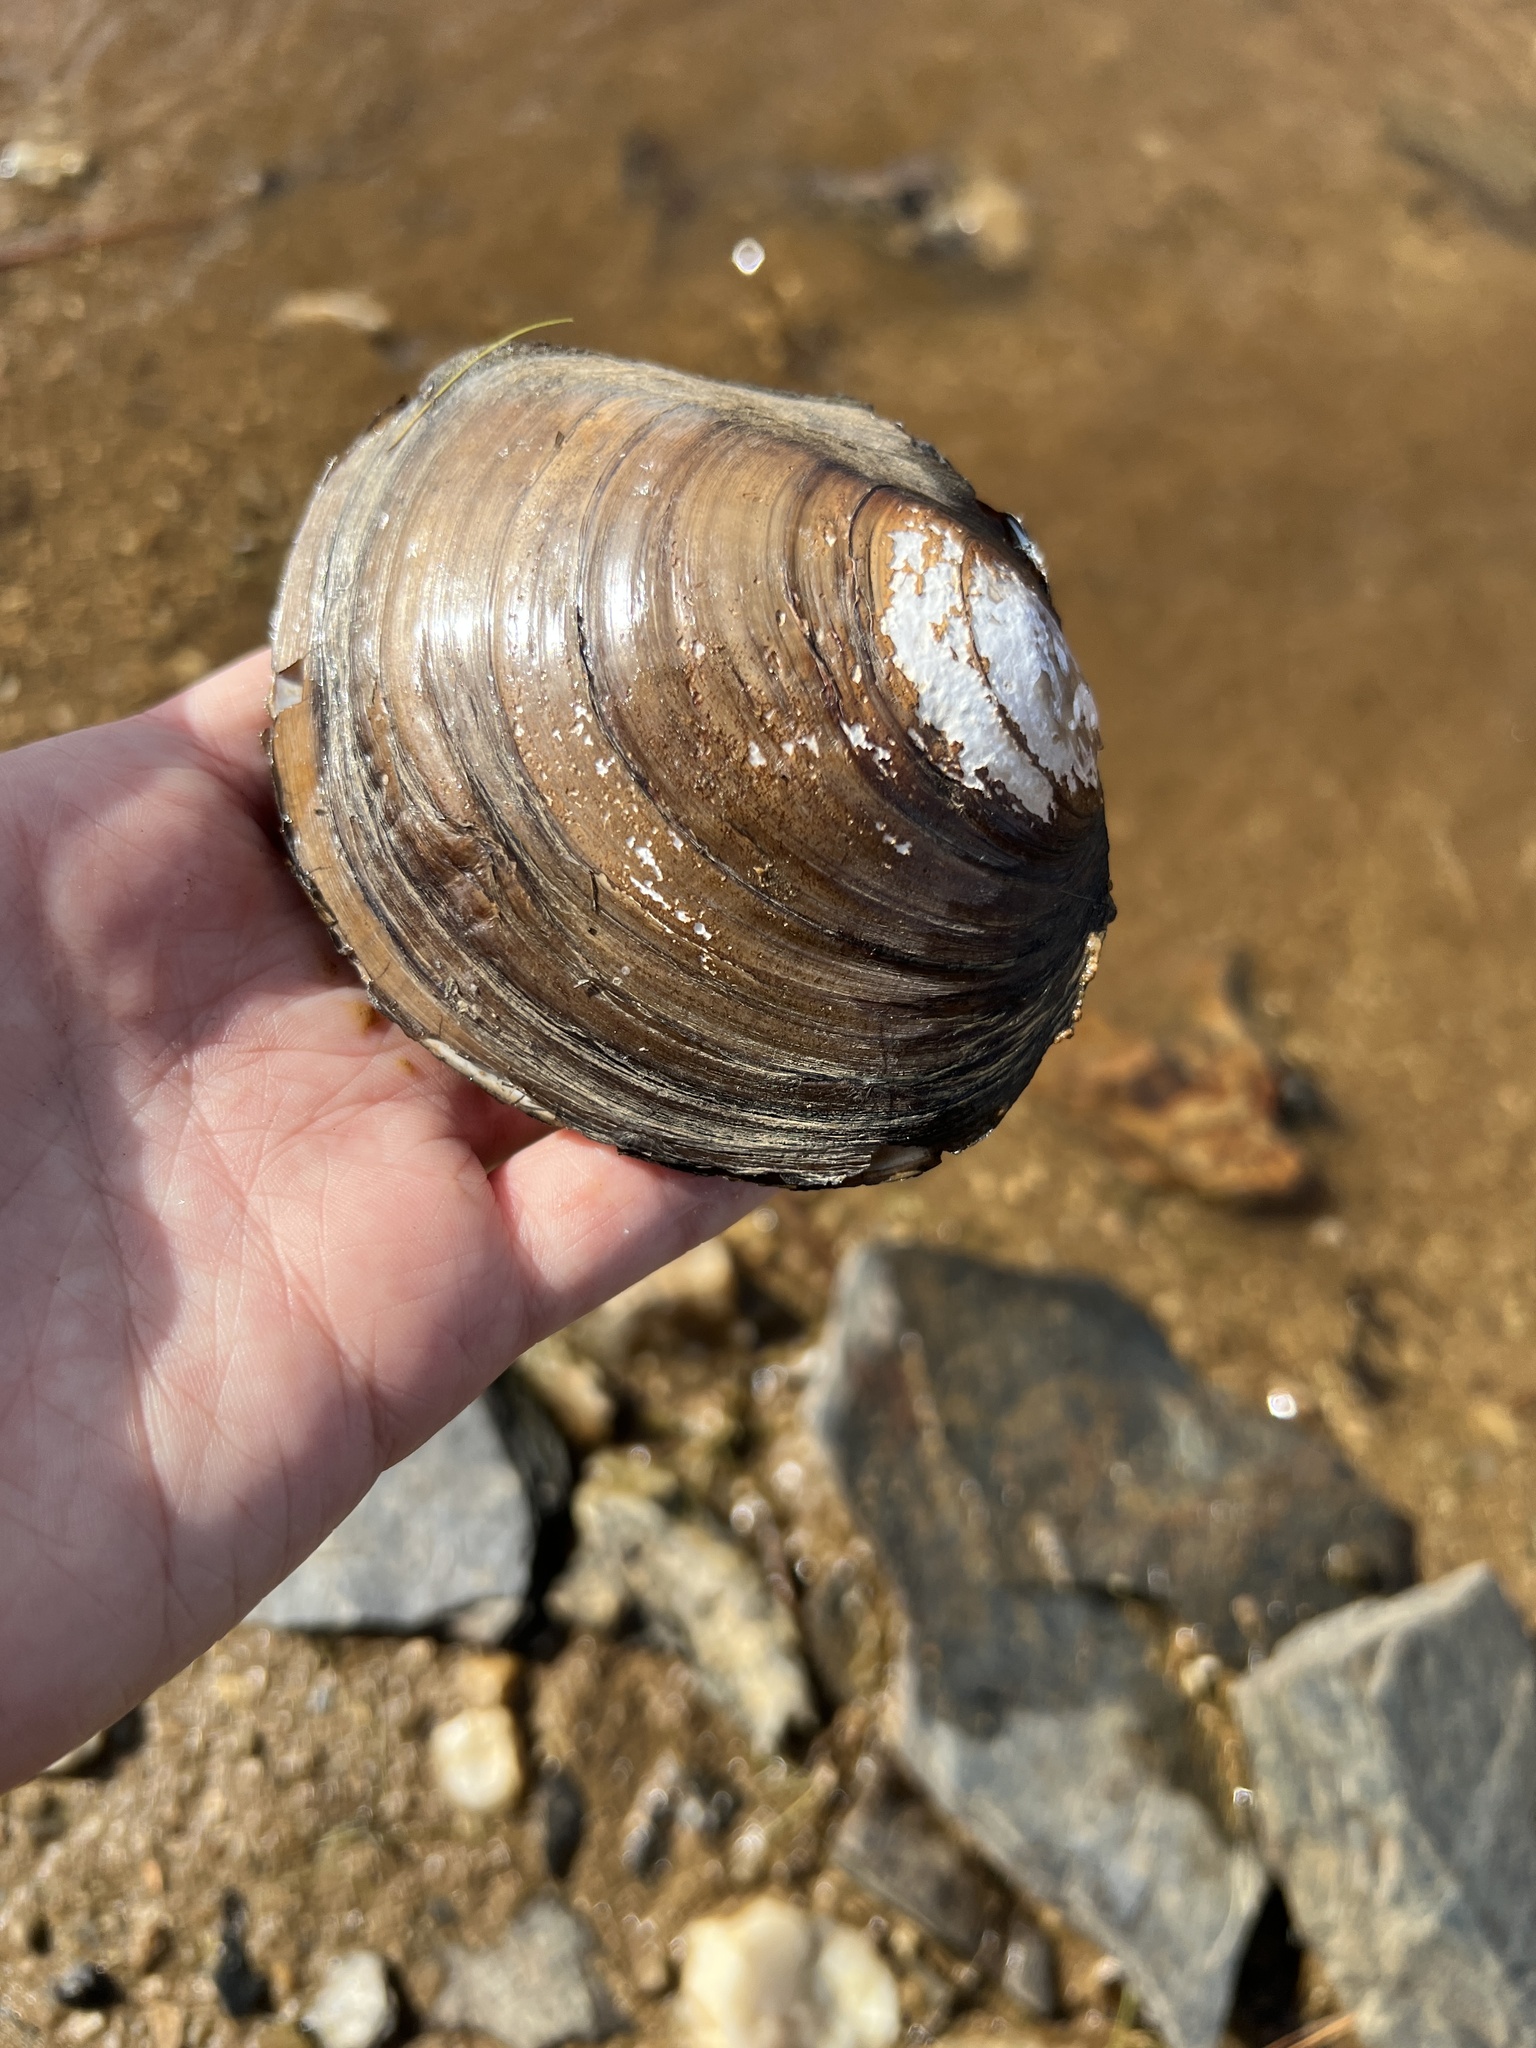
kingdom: Animalia
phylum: Mollusca
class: Bivalvia
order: Unionida
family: Unionidae
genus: Utterbackiana
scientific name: Utterbackiana suborbiculata
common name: Flat floater
